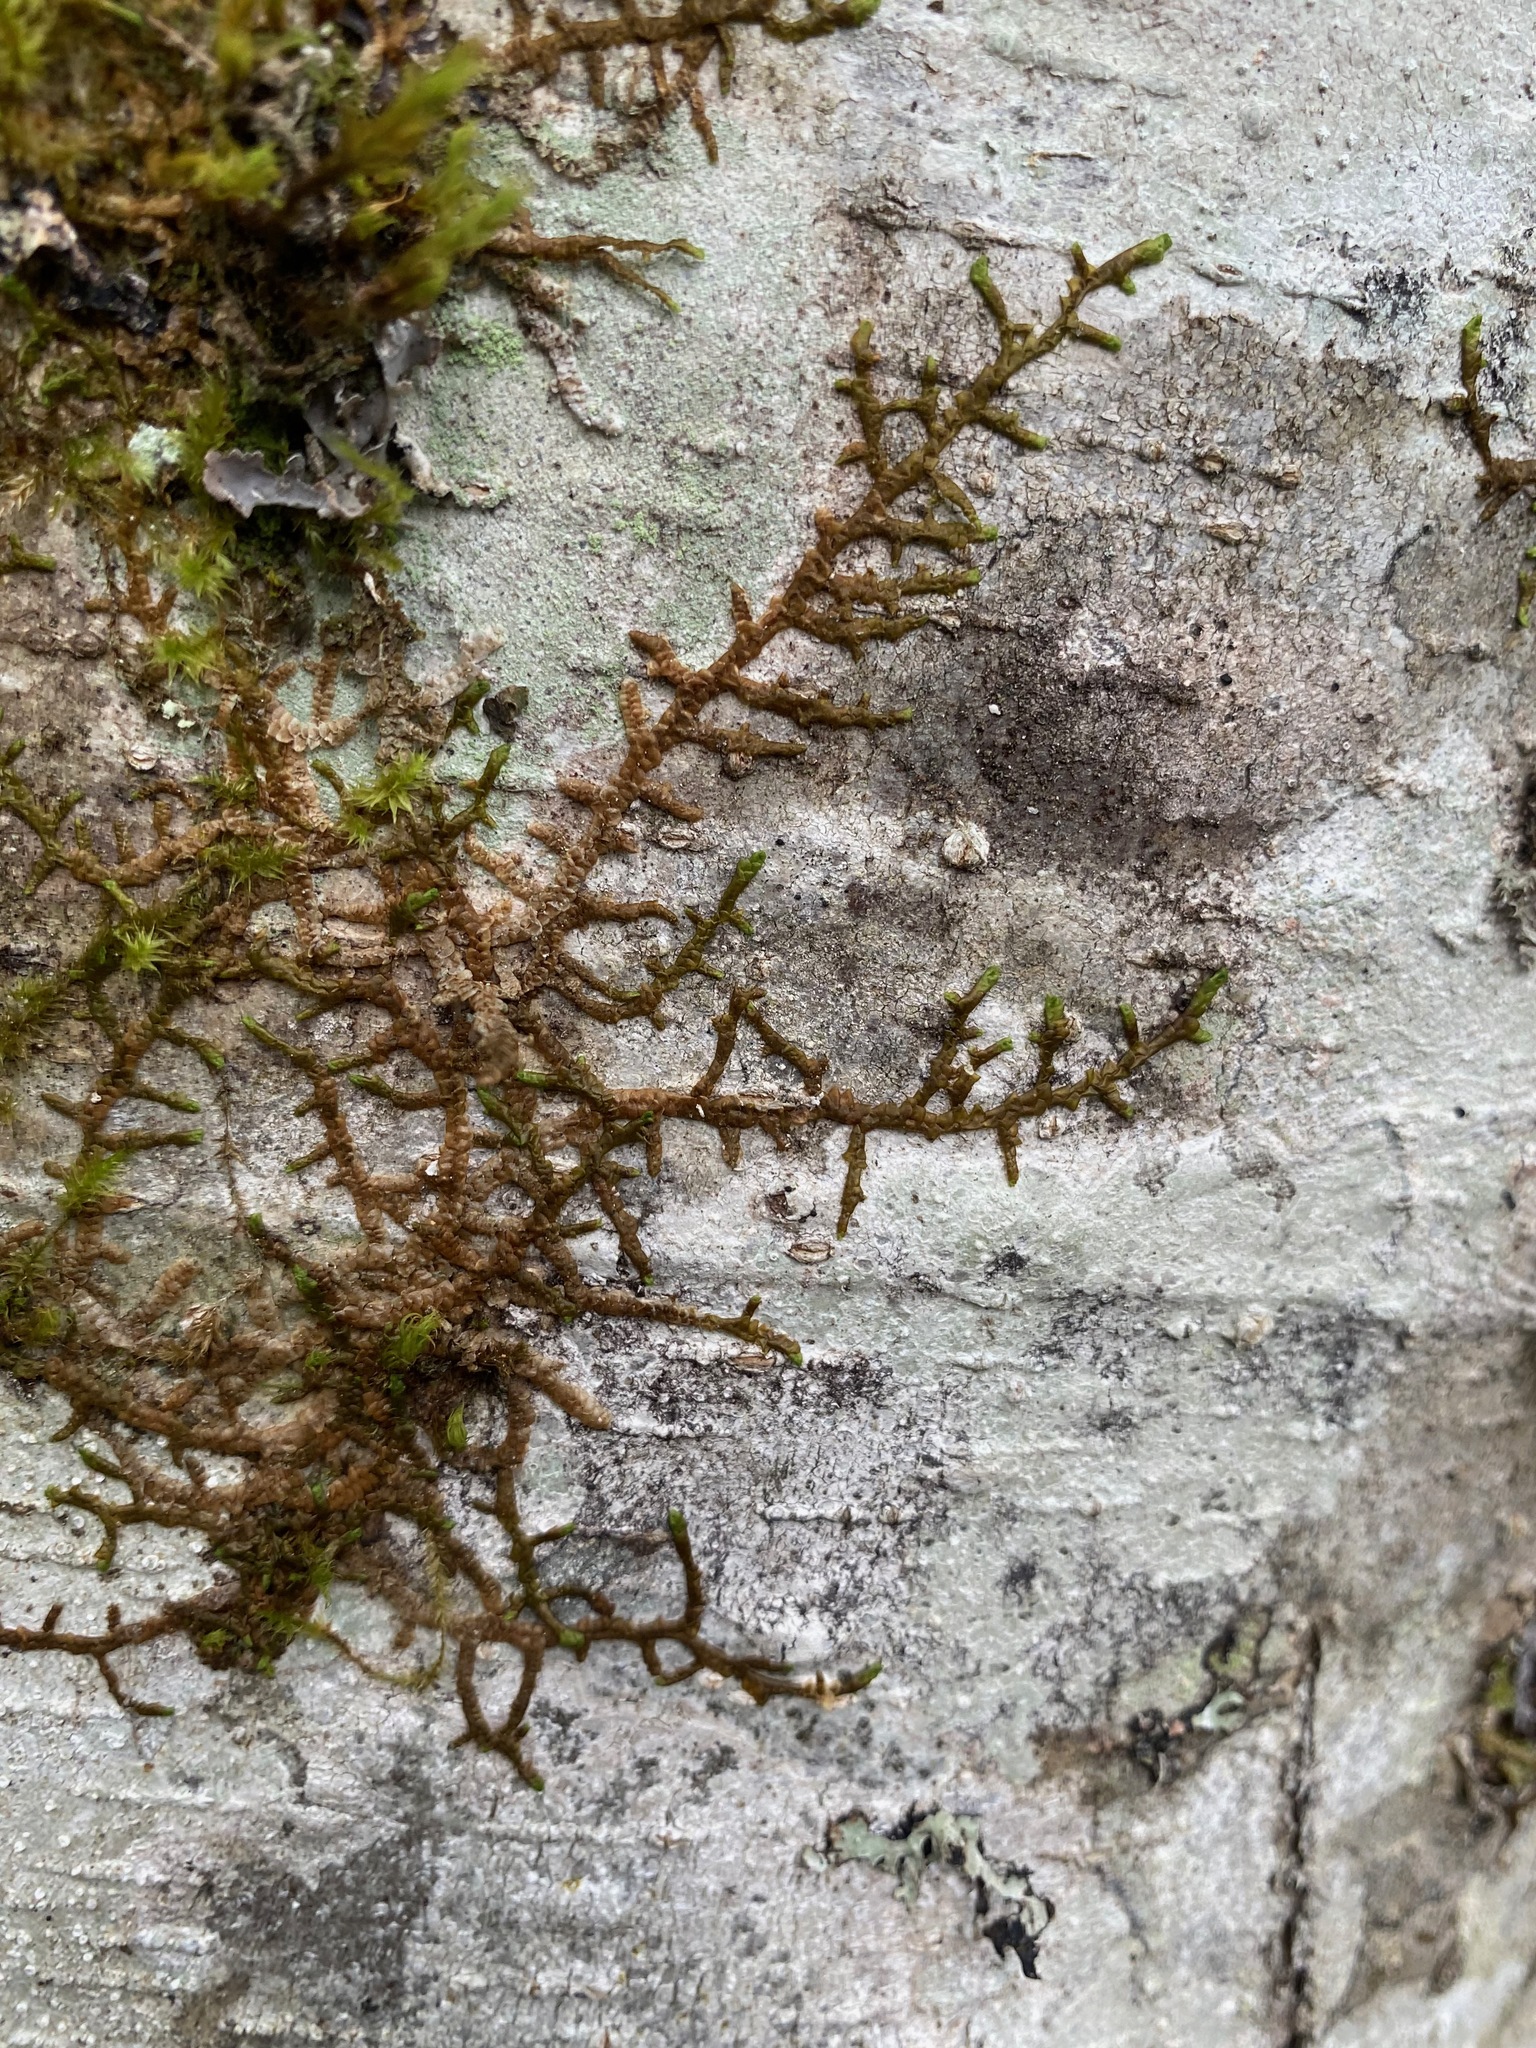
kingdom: Plantae
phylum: Marchantiophyta
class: Jungermanniopsida
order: Porellales
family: Porellaceae
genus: Porella
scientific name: Porella navicularis
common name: Tree ruffle liverwort
